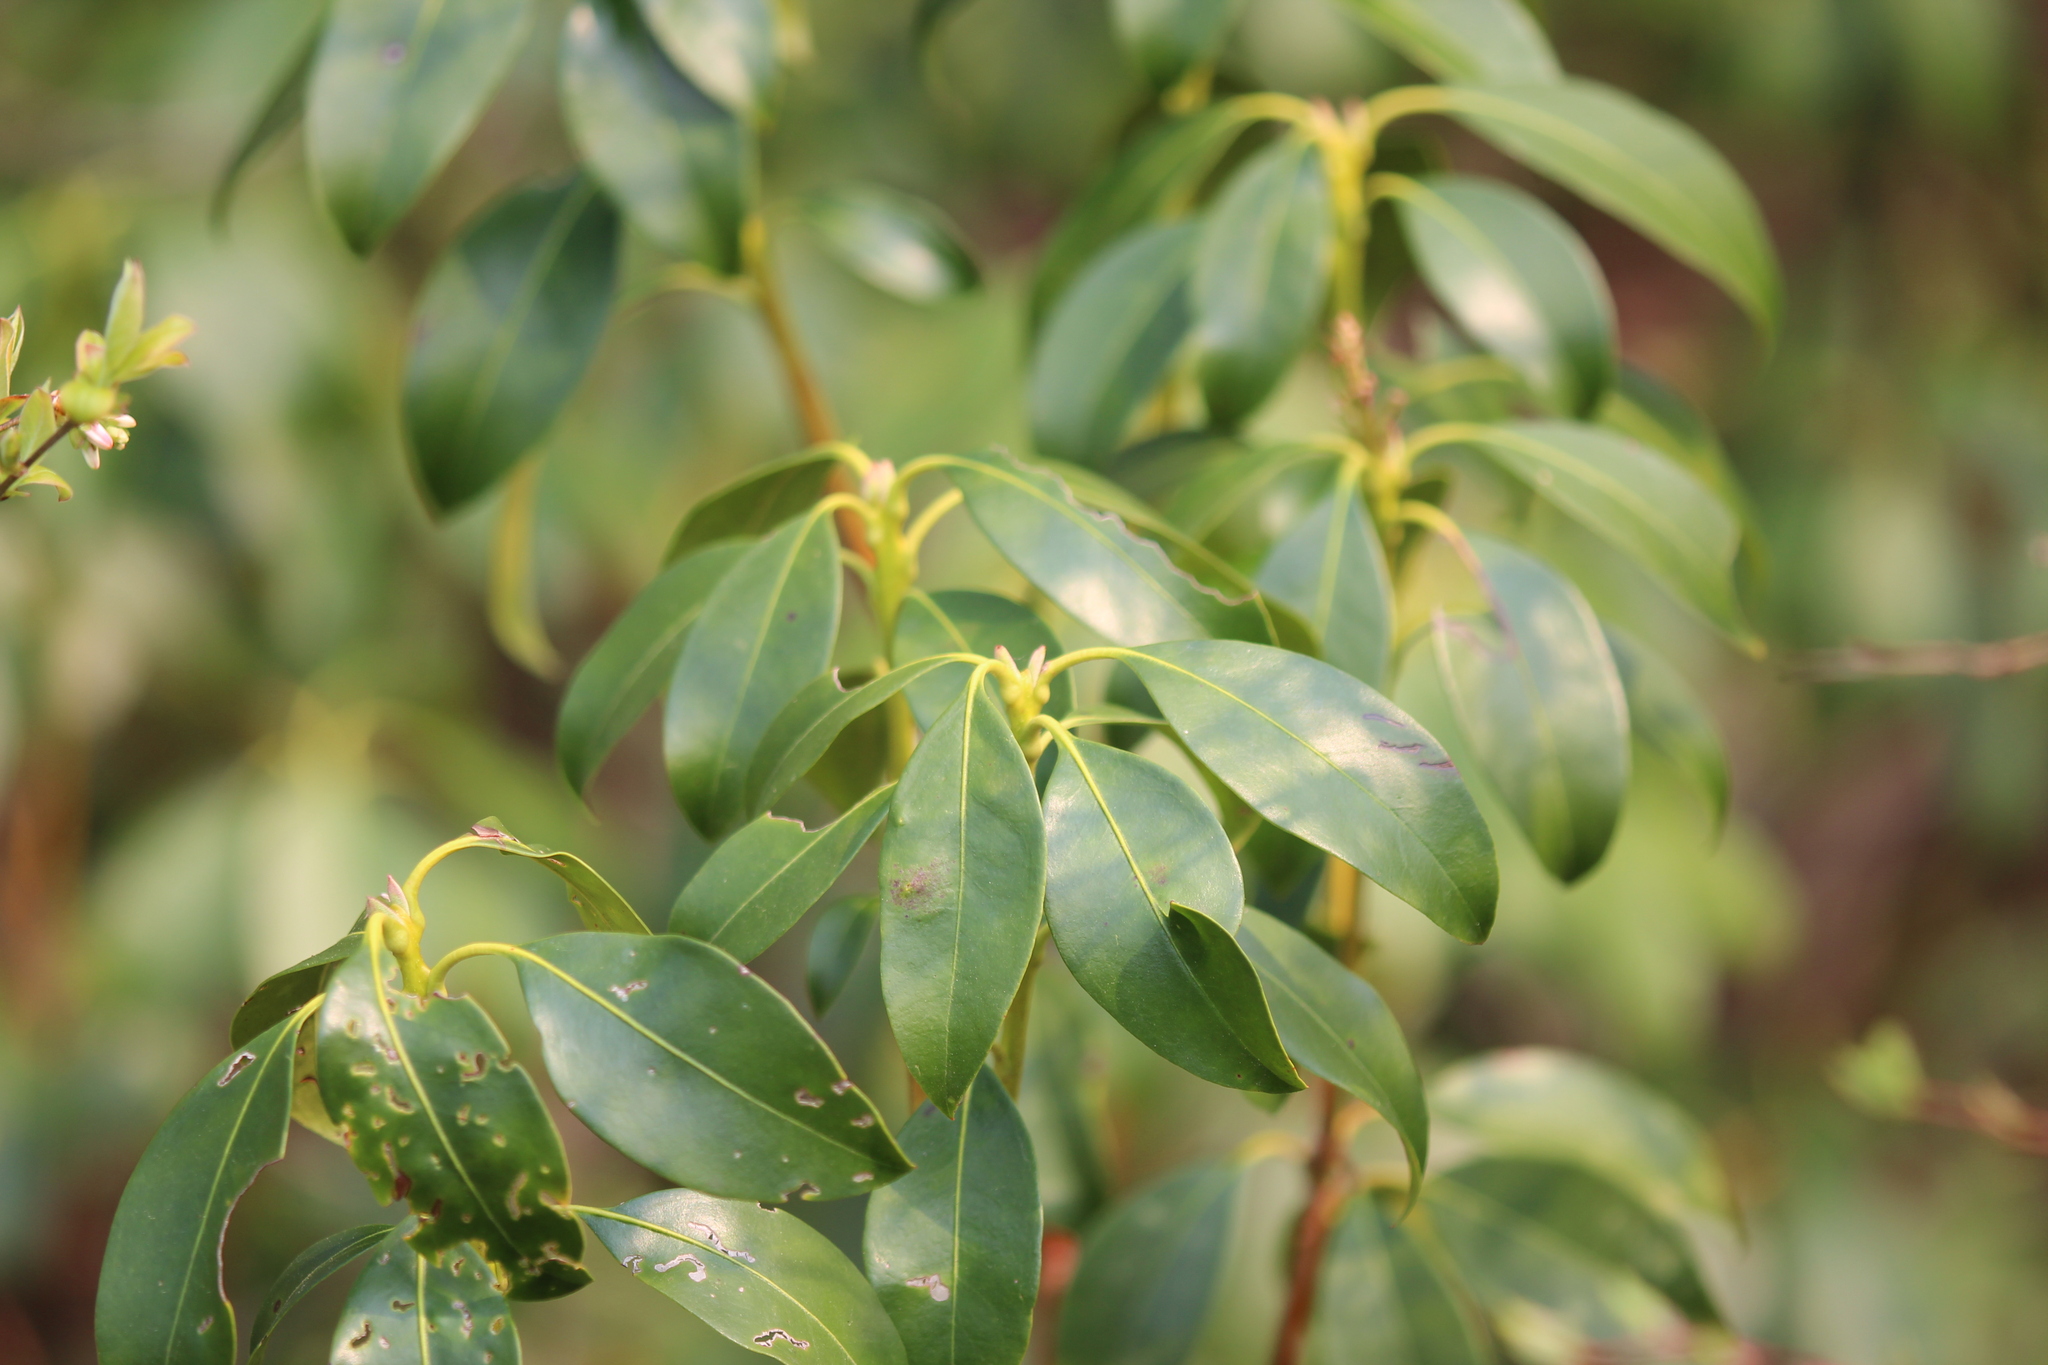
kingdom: Plantae
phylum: Tracheophyta
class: Magnoliopsida
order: Ericales
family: Ericaceae
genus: Kalmia
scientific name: Kalmia latifolia
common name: Mountain-laurel
